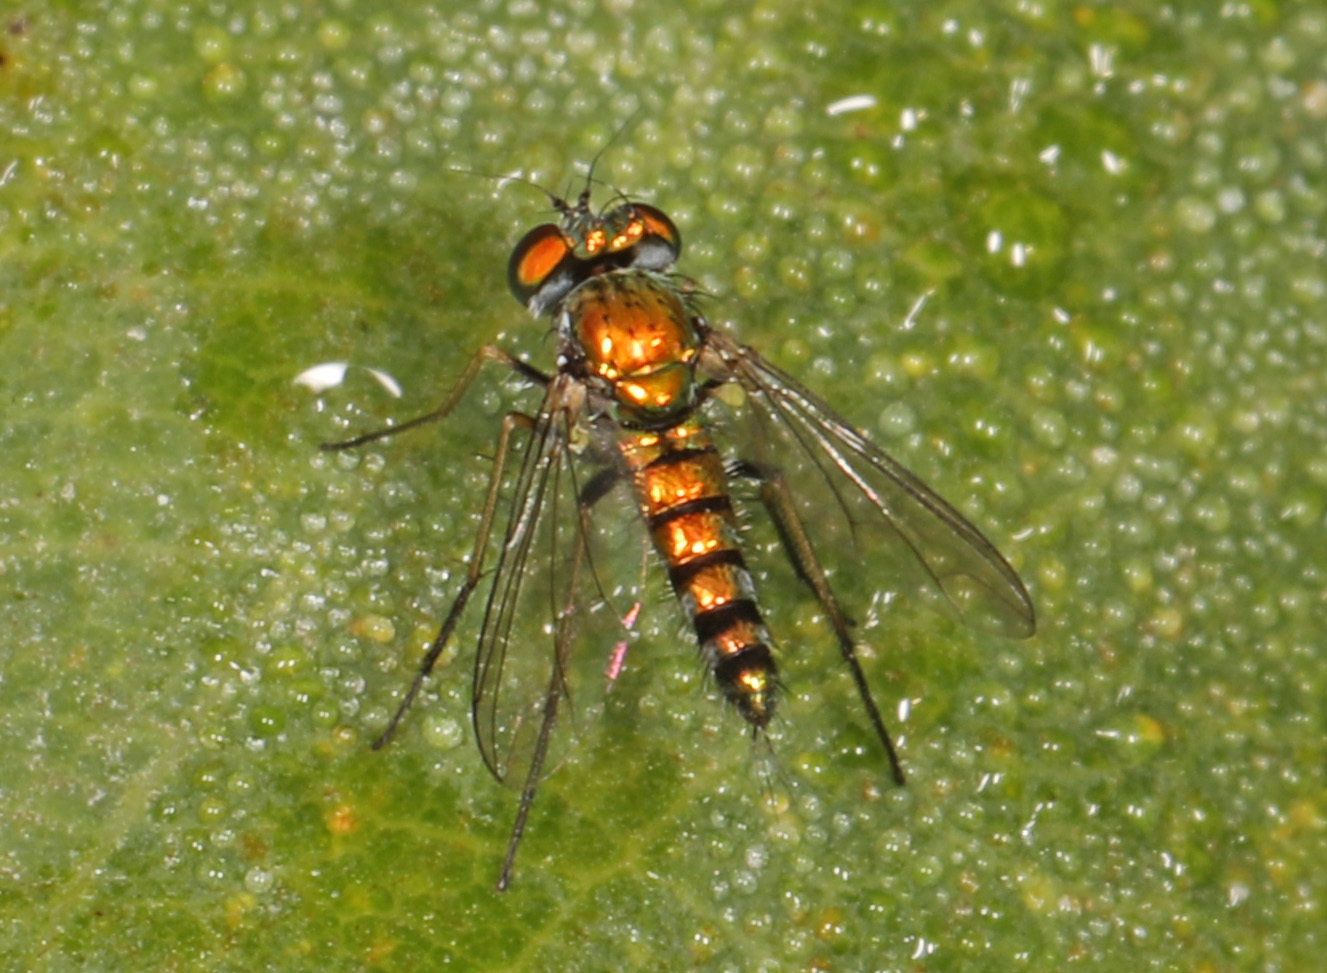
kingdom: Animalia
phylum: Arthropoda
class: Insecta
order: Diptera
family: Dolichopodidae
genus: Condylostylus
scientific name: Condylostylus caudatus
